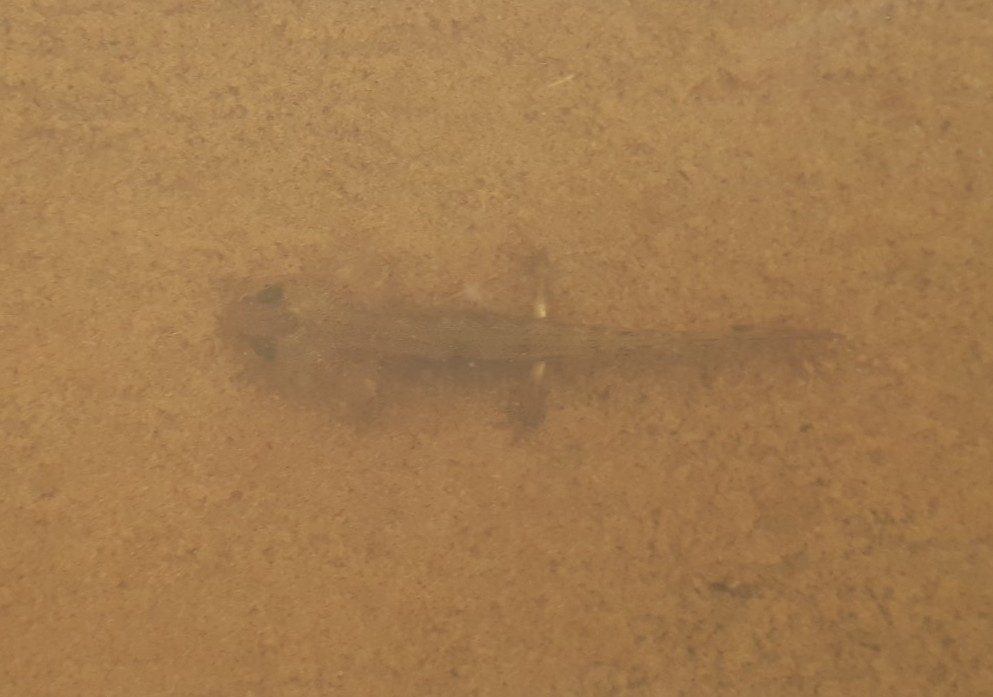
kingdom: Animalia
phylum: Chordata
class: Amphibia
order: Caudata
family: Salamandridae
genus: Salamandra
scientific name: Salamandra salamandra
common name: Fire salamander
